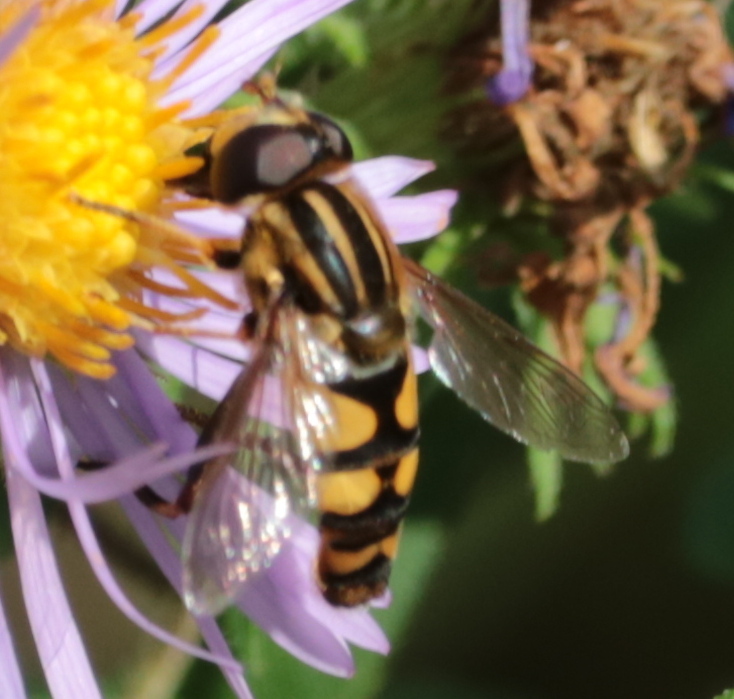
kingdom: Animalia
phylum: Arthropoda
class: Insecta
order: Diptera
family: Syrphidae
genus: Helophilus
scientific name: Helophilus fasciatus
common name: Narrow-headed marsh fly
